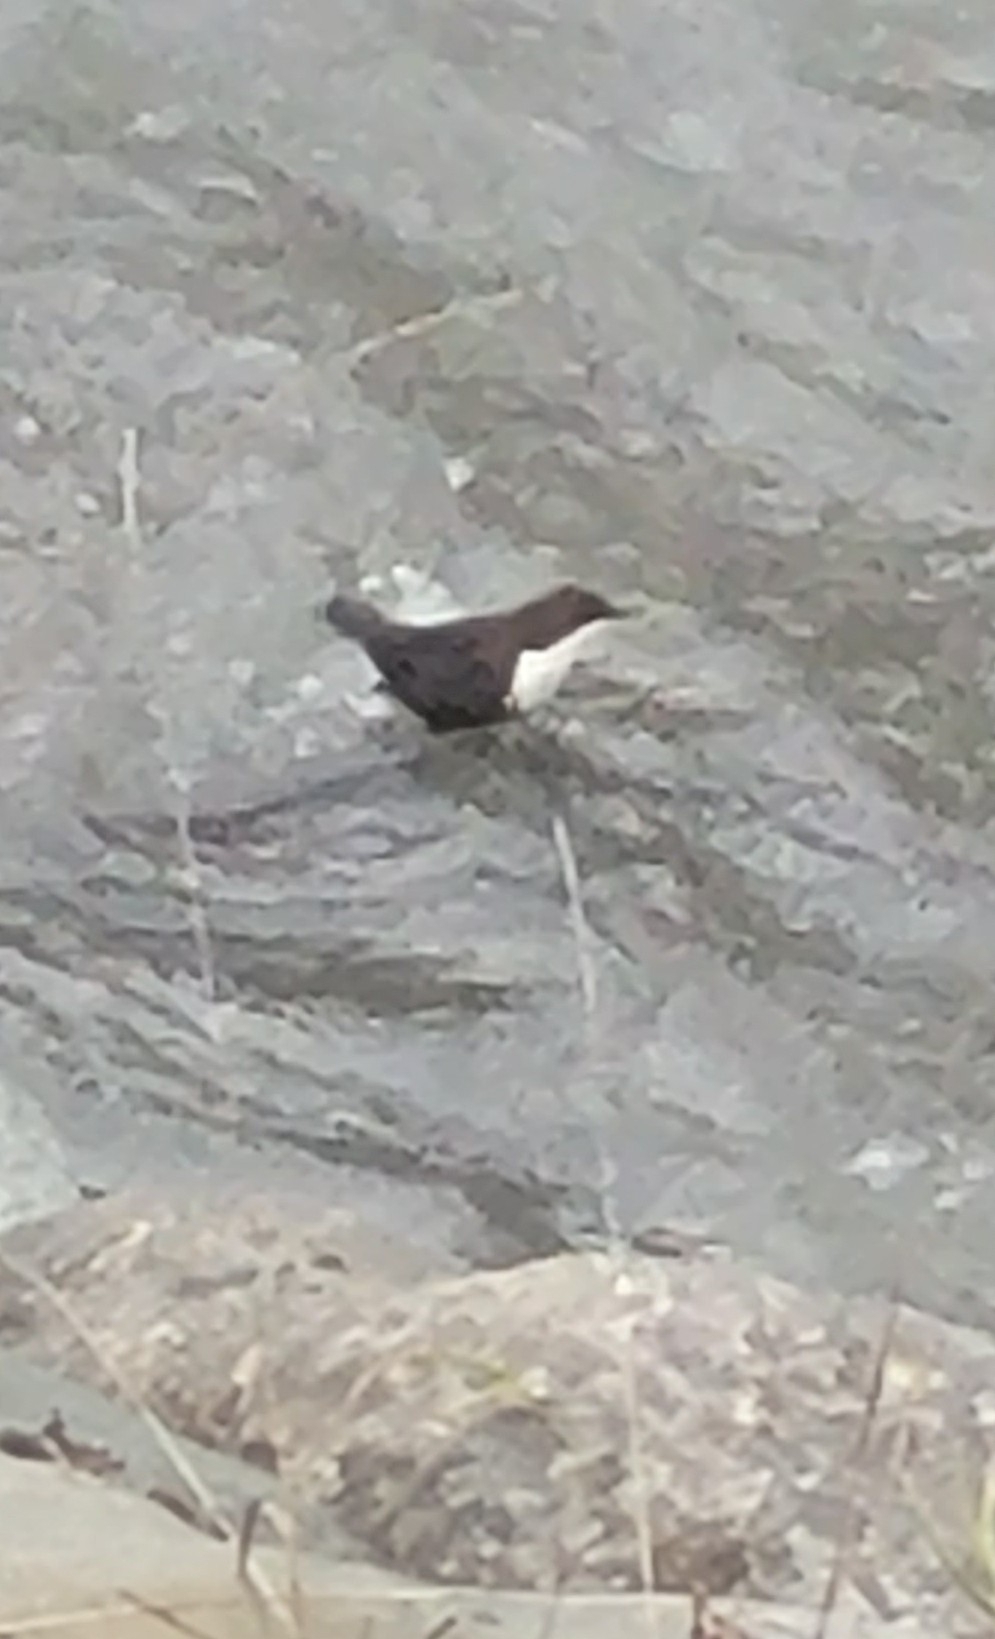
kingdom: Animalia
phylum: Chordata
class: Aves
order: Passeriformes
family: Cinclidae
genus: Cinclus
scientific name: Cinclus cinclus
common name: White-throated dipper
